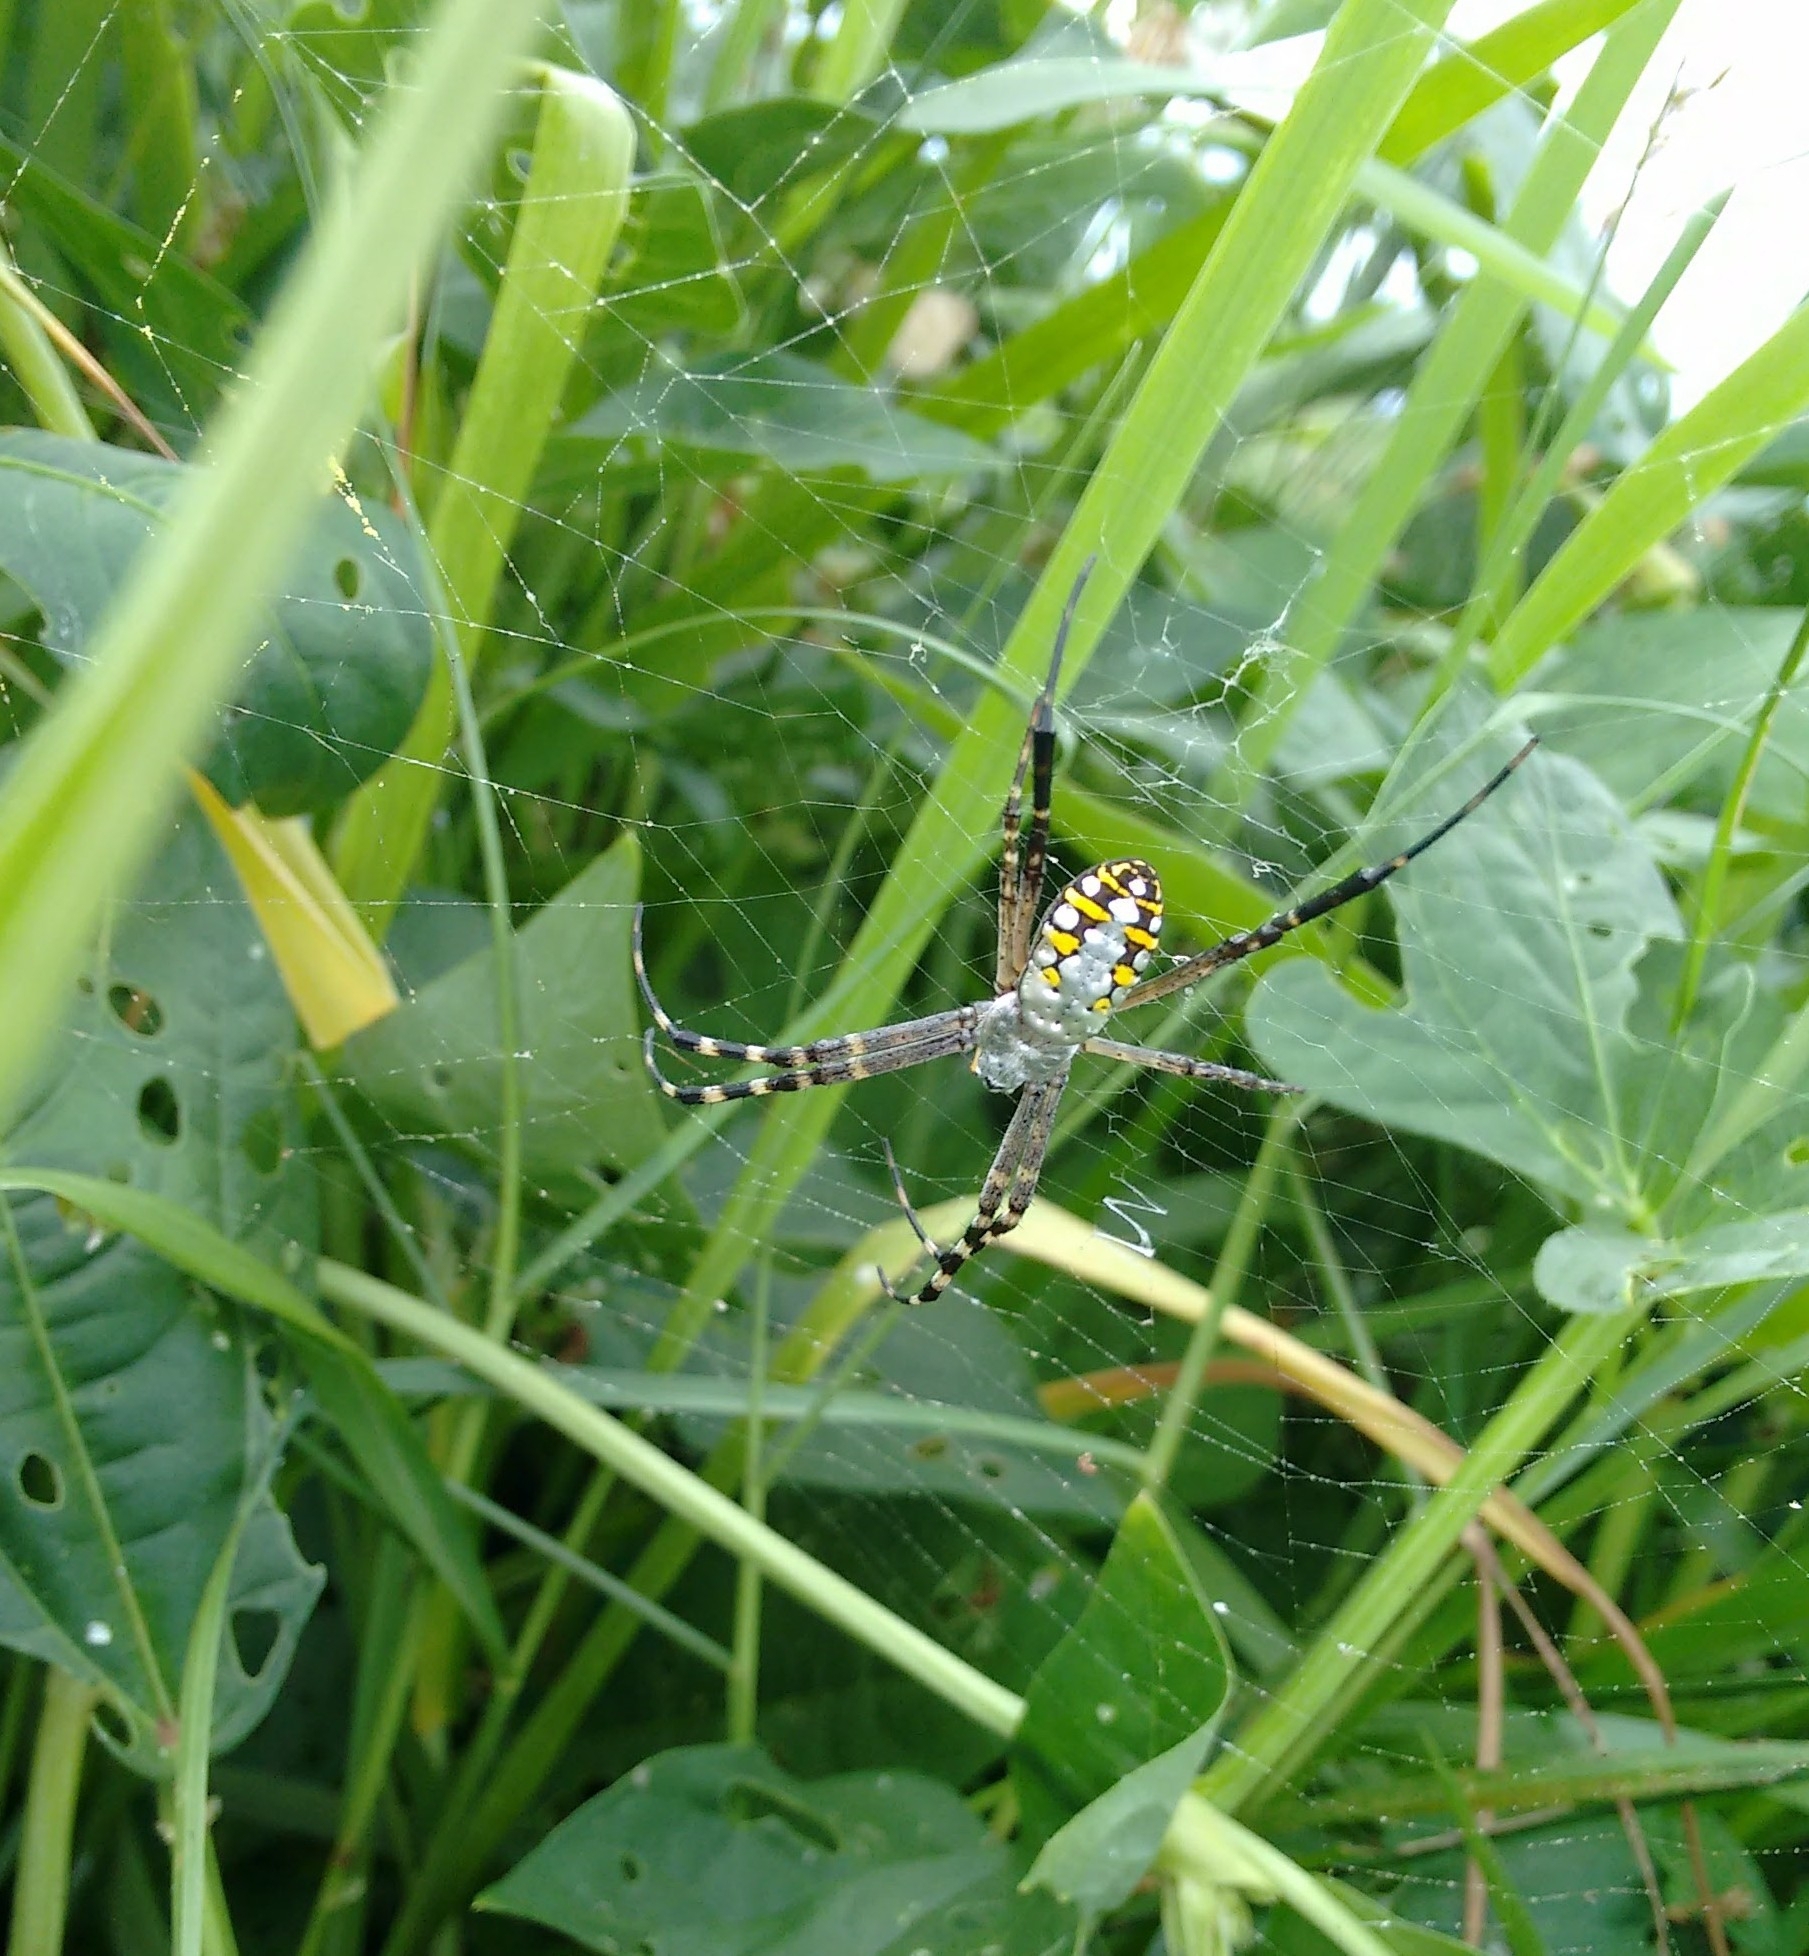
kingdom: Animalia
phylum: Arthropoda
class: Arachnida
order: Araneae
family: Araneidae
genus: Argiope
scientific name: Argiope catenulata
